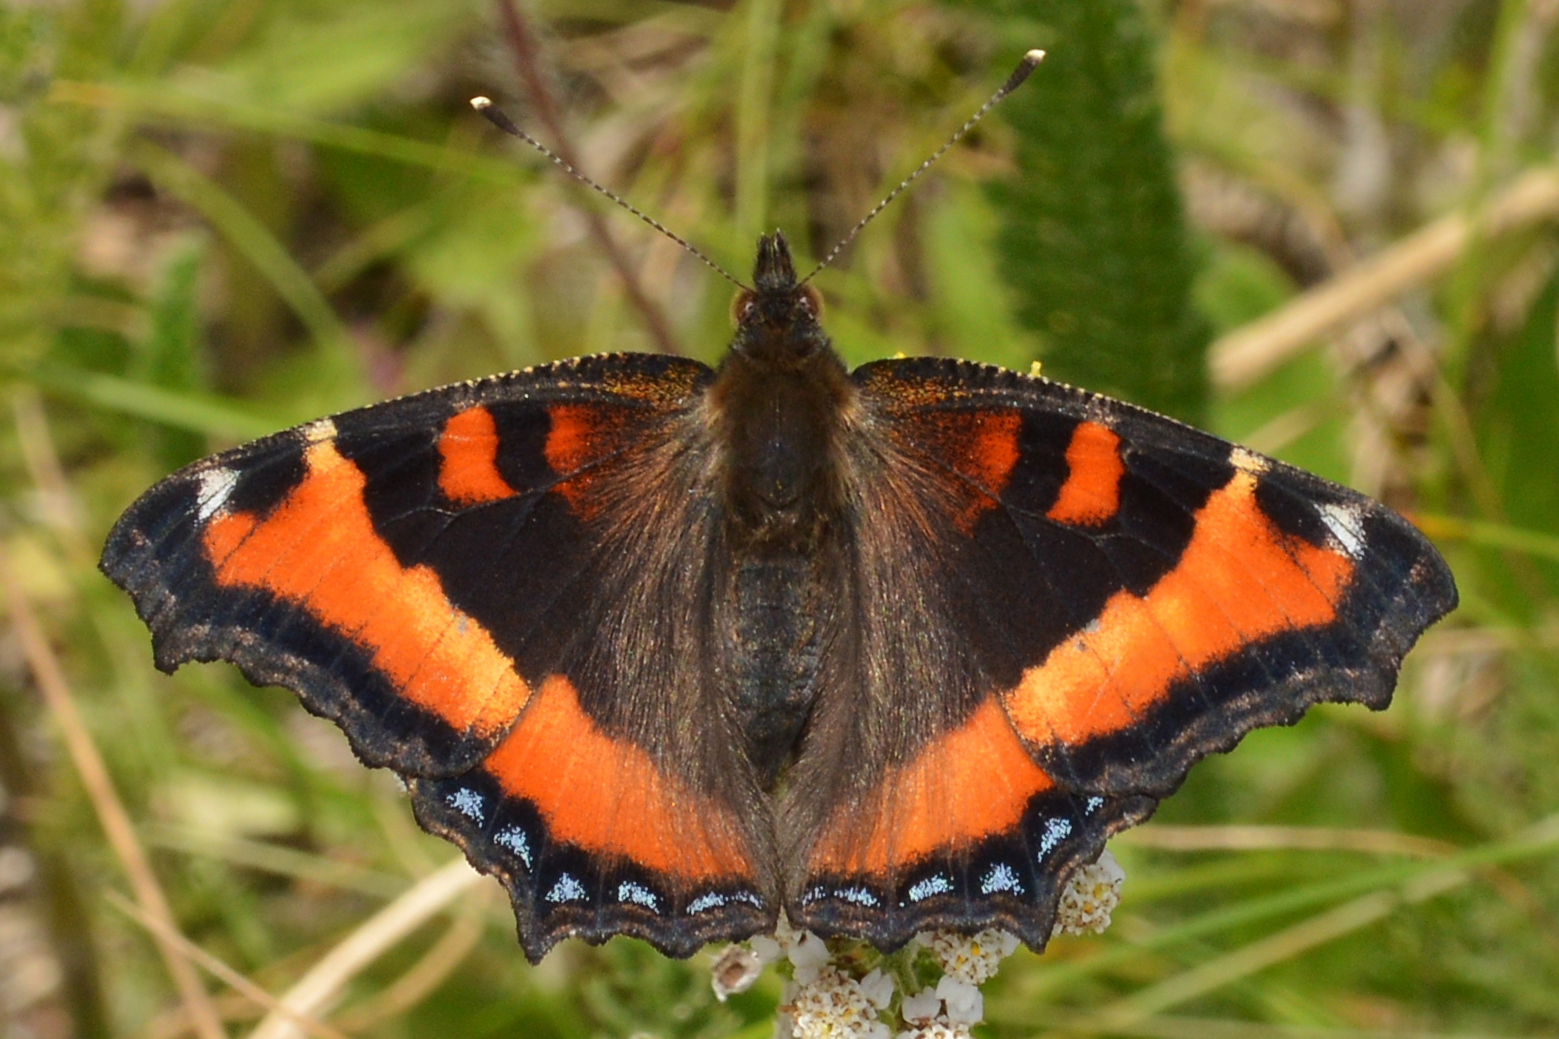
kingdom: Animalia
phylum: Arthropoda
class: Insecta
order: Lepidoptera
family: Nymphalidae
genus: Aglais
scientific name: Aglais milberti
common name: Milbert's tortoiseshell
